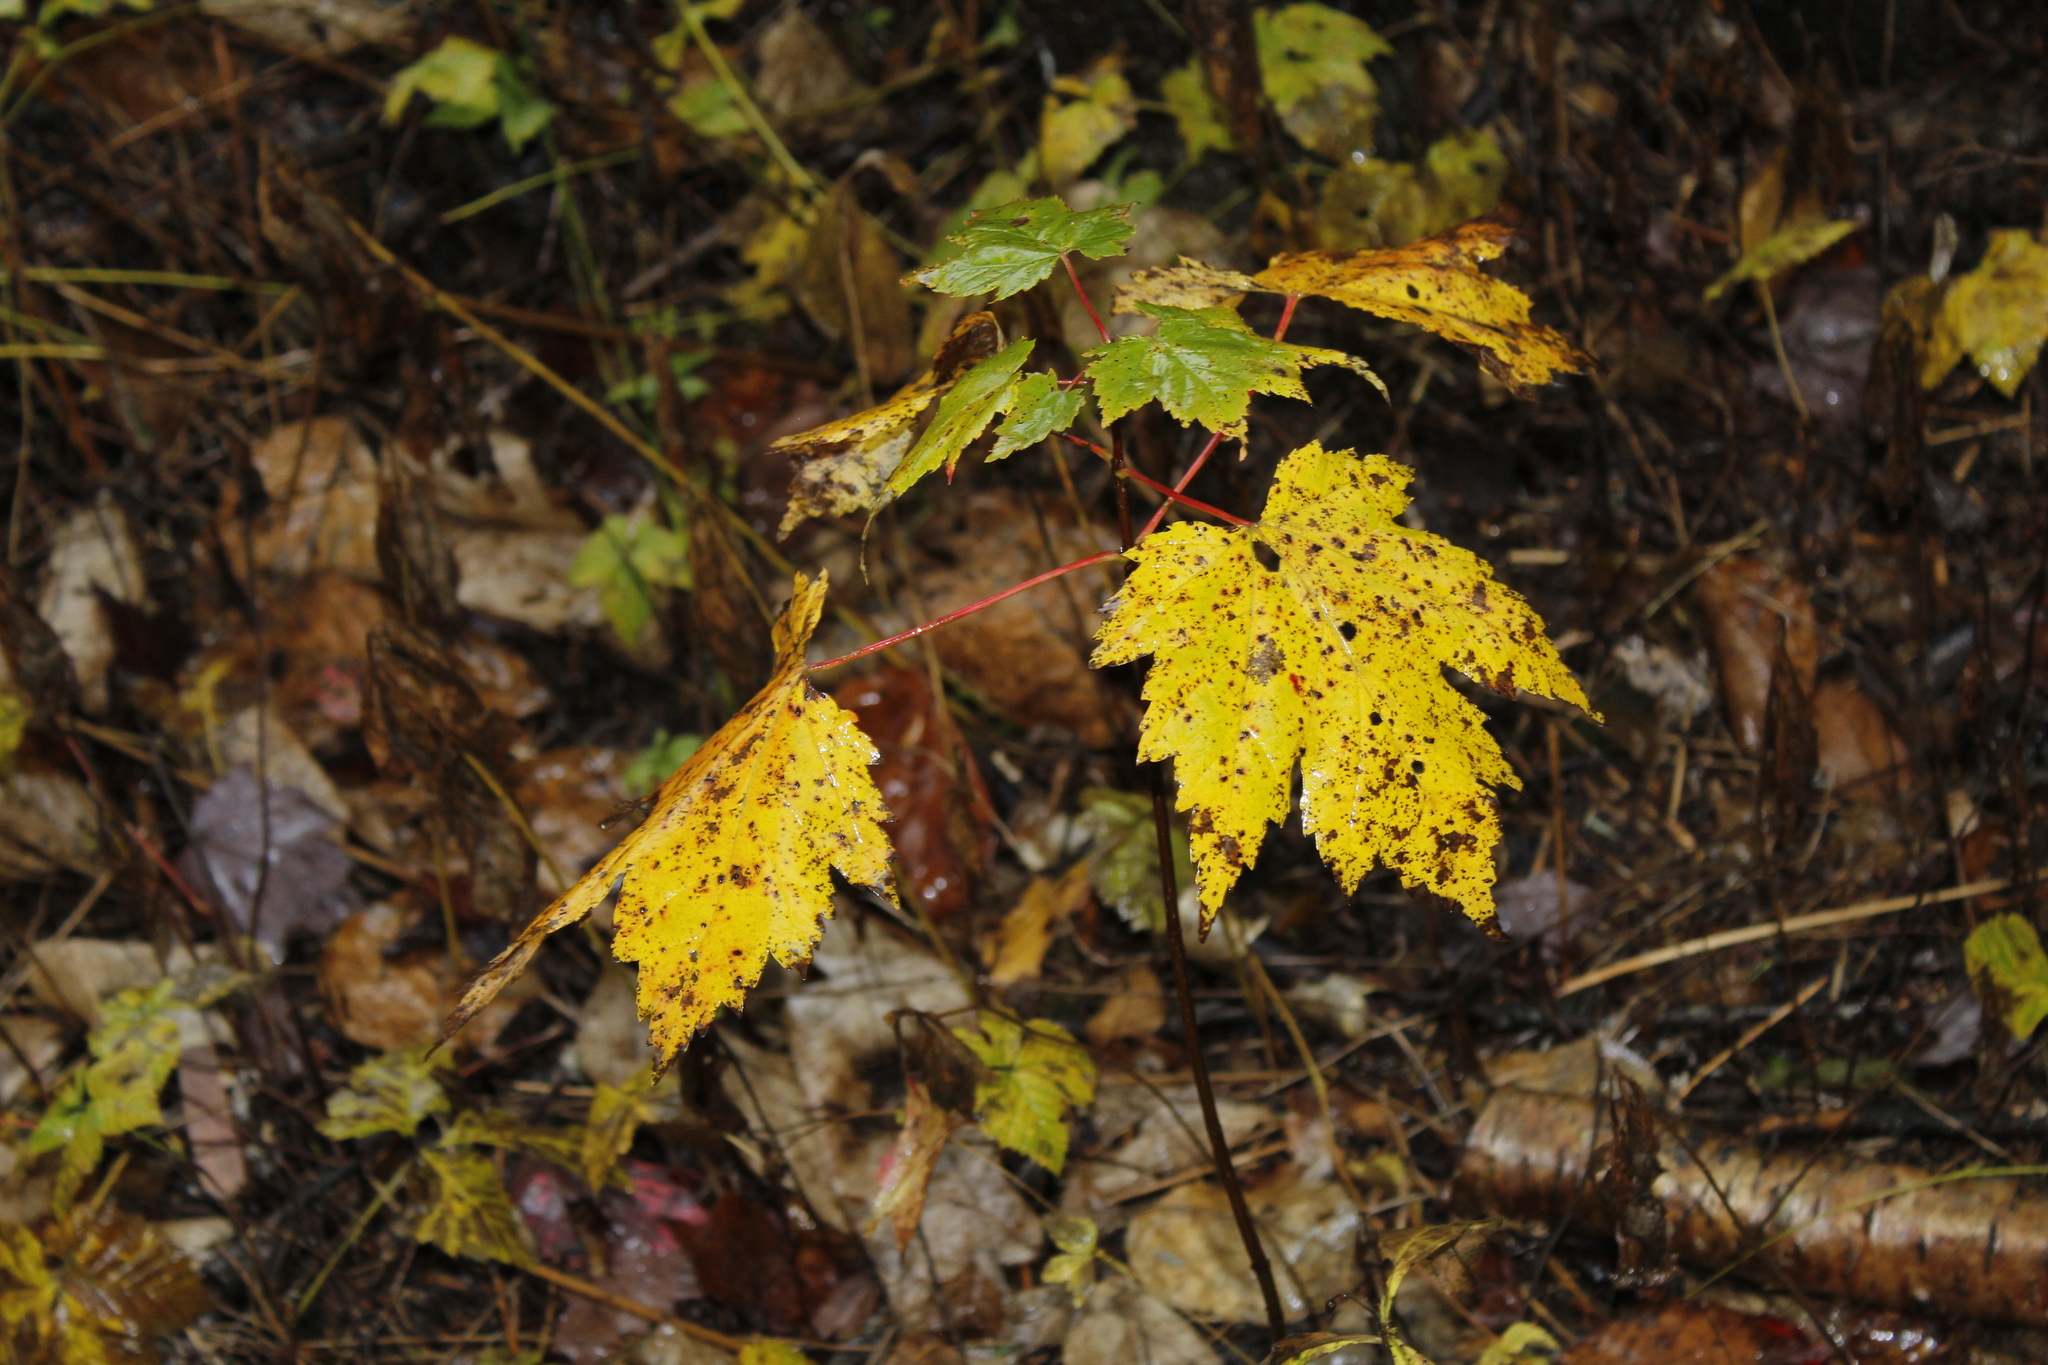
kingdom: Plantae
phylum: Tracheophyta
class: Magnoliopsida
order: Sapindales
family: Sapindaceae
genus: Acer
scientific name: Acer rubrum
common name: Red maple
